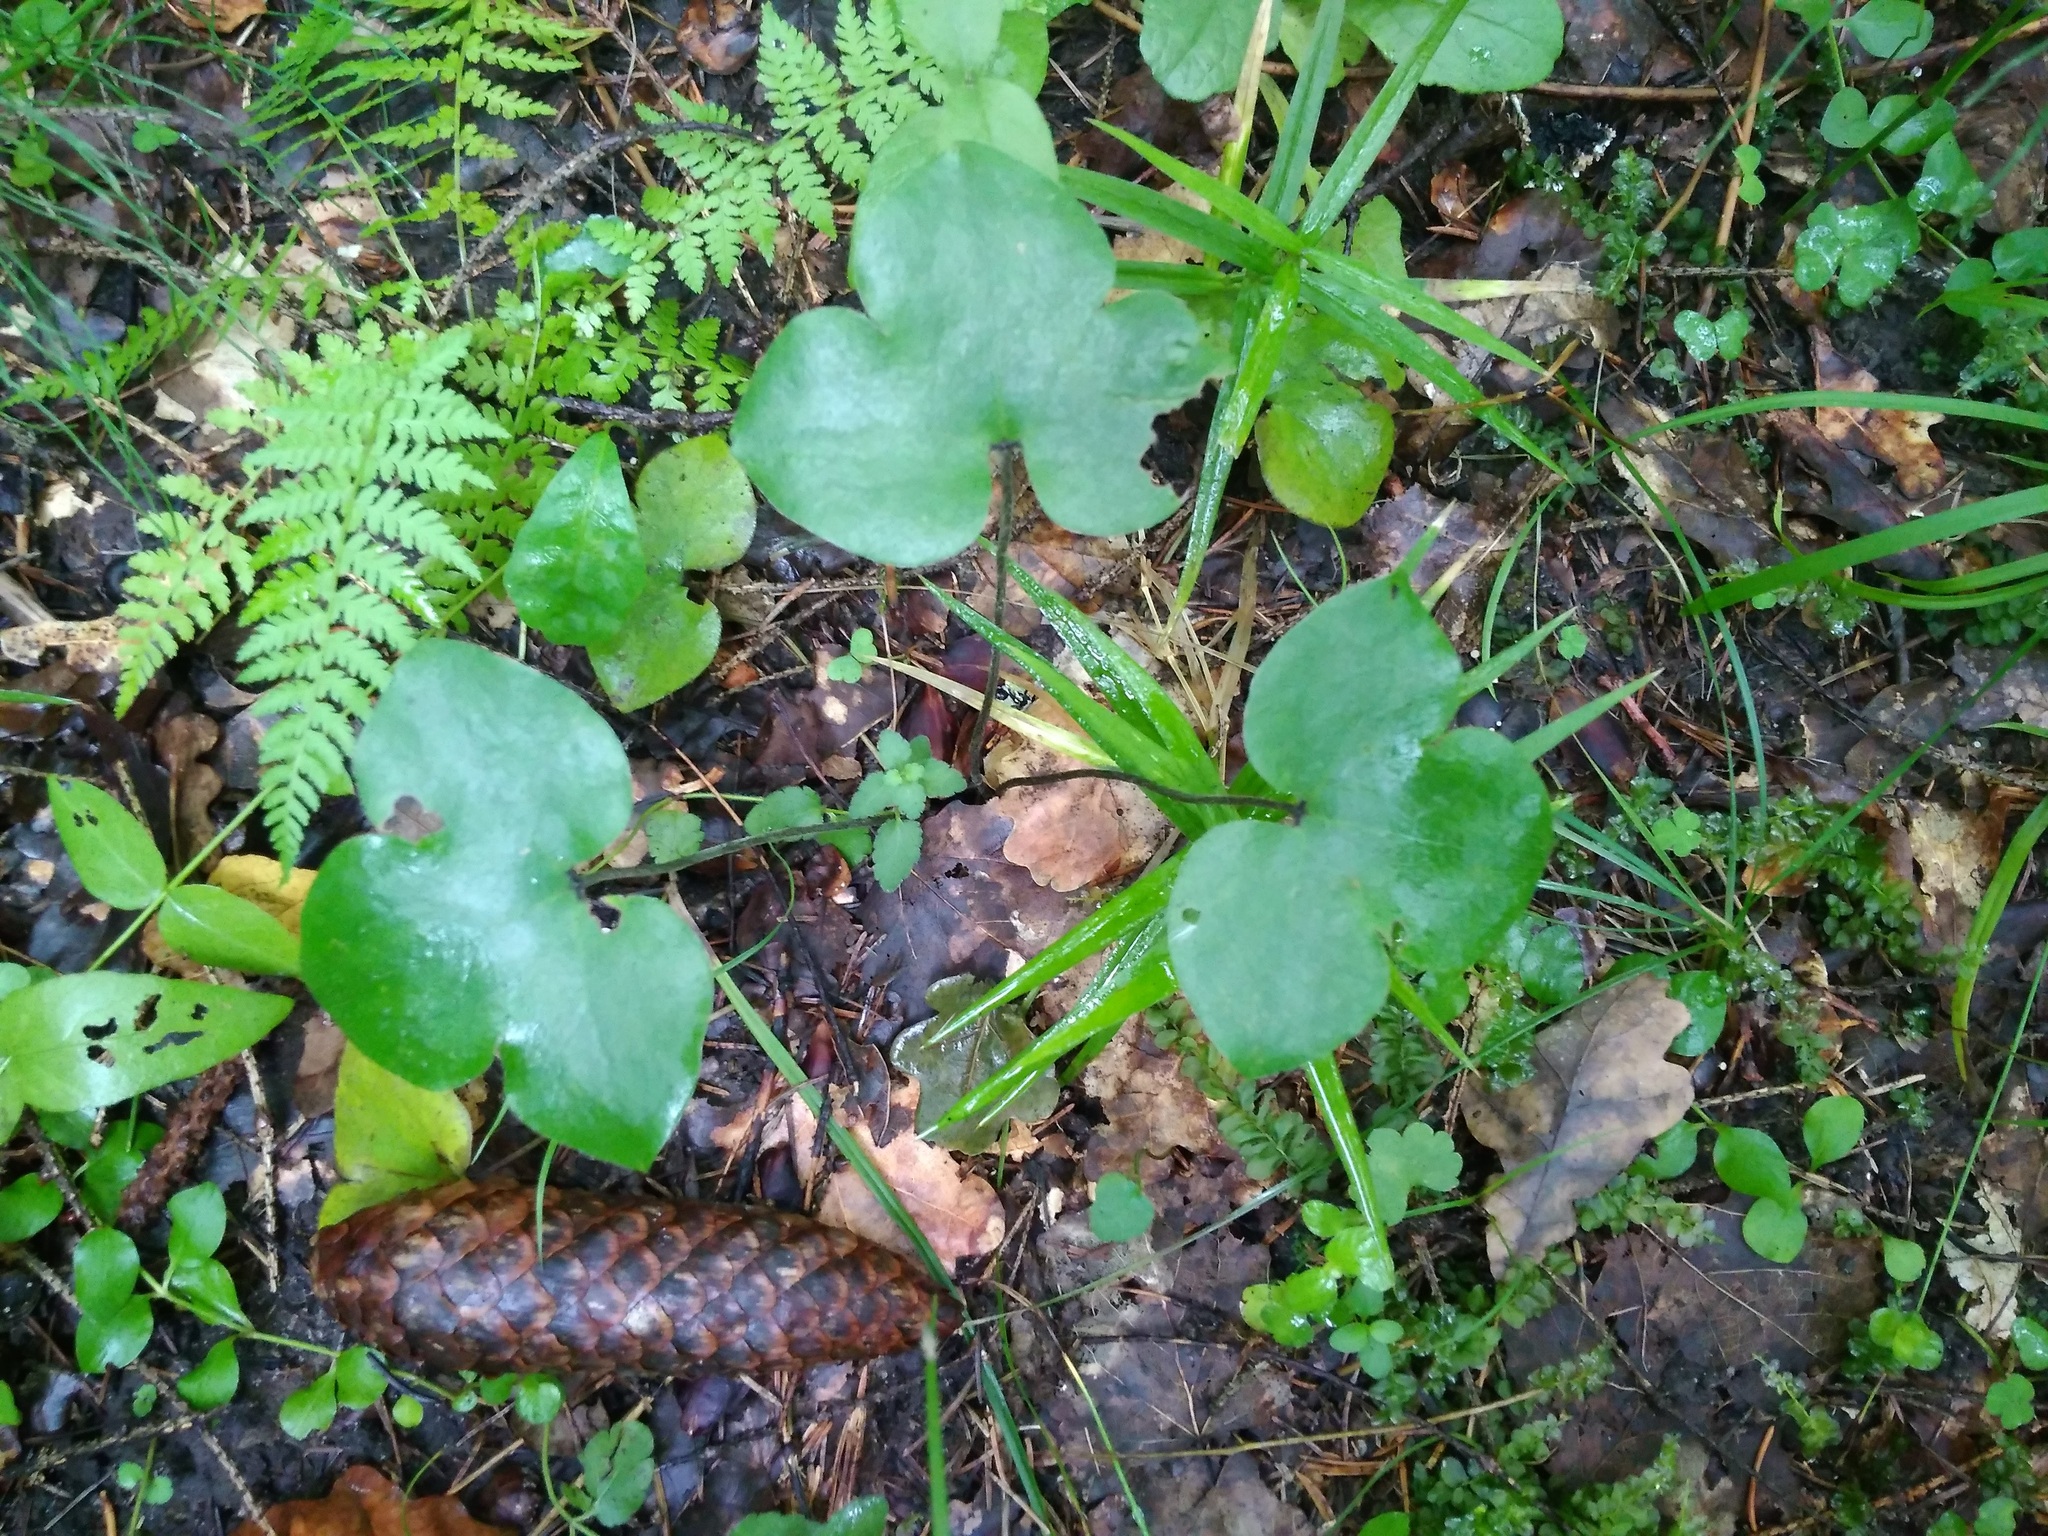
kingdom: Plantae
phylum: Tracheophyta
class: Magnoliopsida
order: Ranunculales
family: Ranunculaceae
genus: Hepatica
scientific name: Hepatica nobilis
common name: Liverleaf
